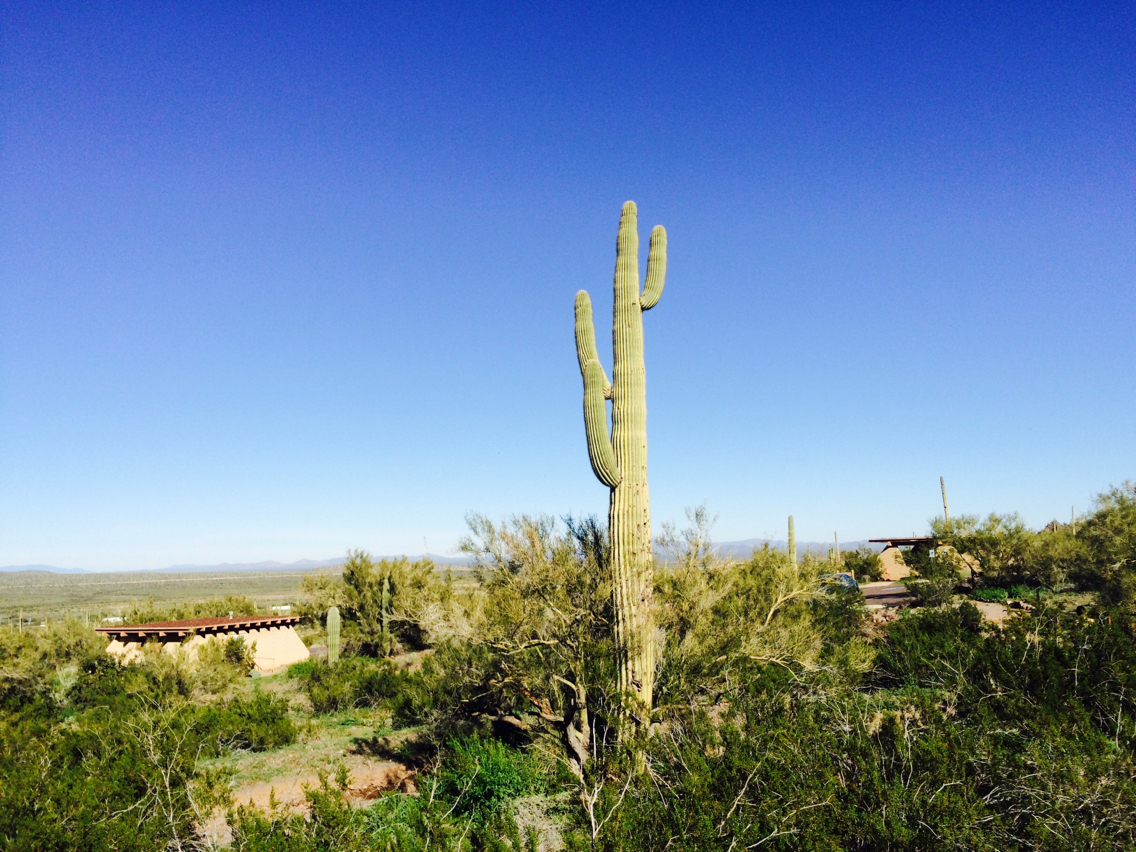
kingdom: Plantae
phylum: Tracheophyta
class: Magnoliopsida
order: Caryophyllales
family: Cactaceae
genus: Carnegiea
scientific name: Carnegiea gigantea
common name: Saguaro
